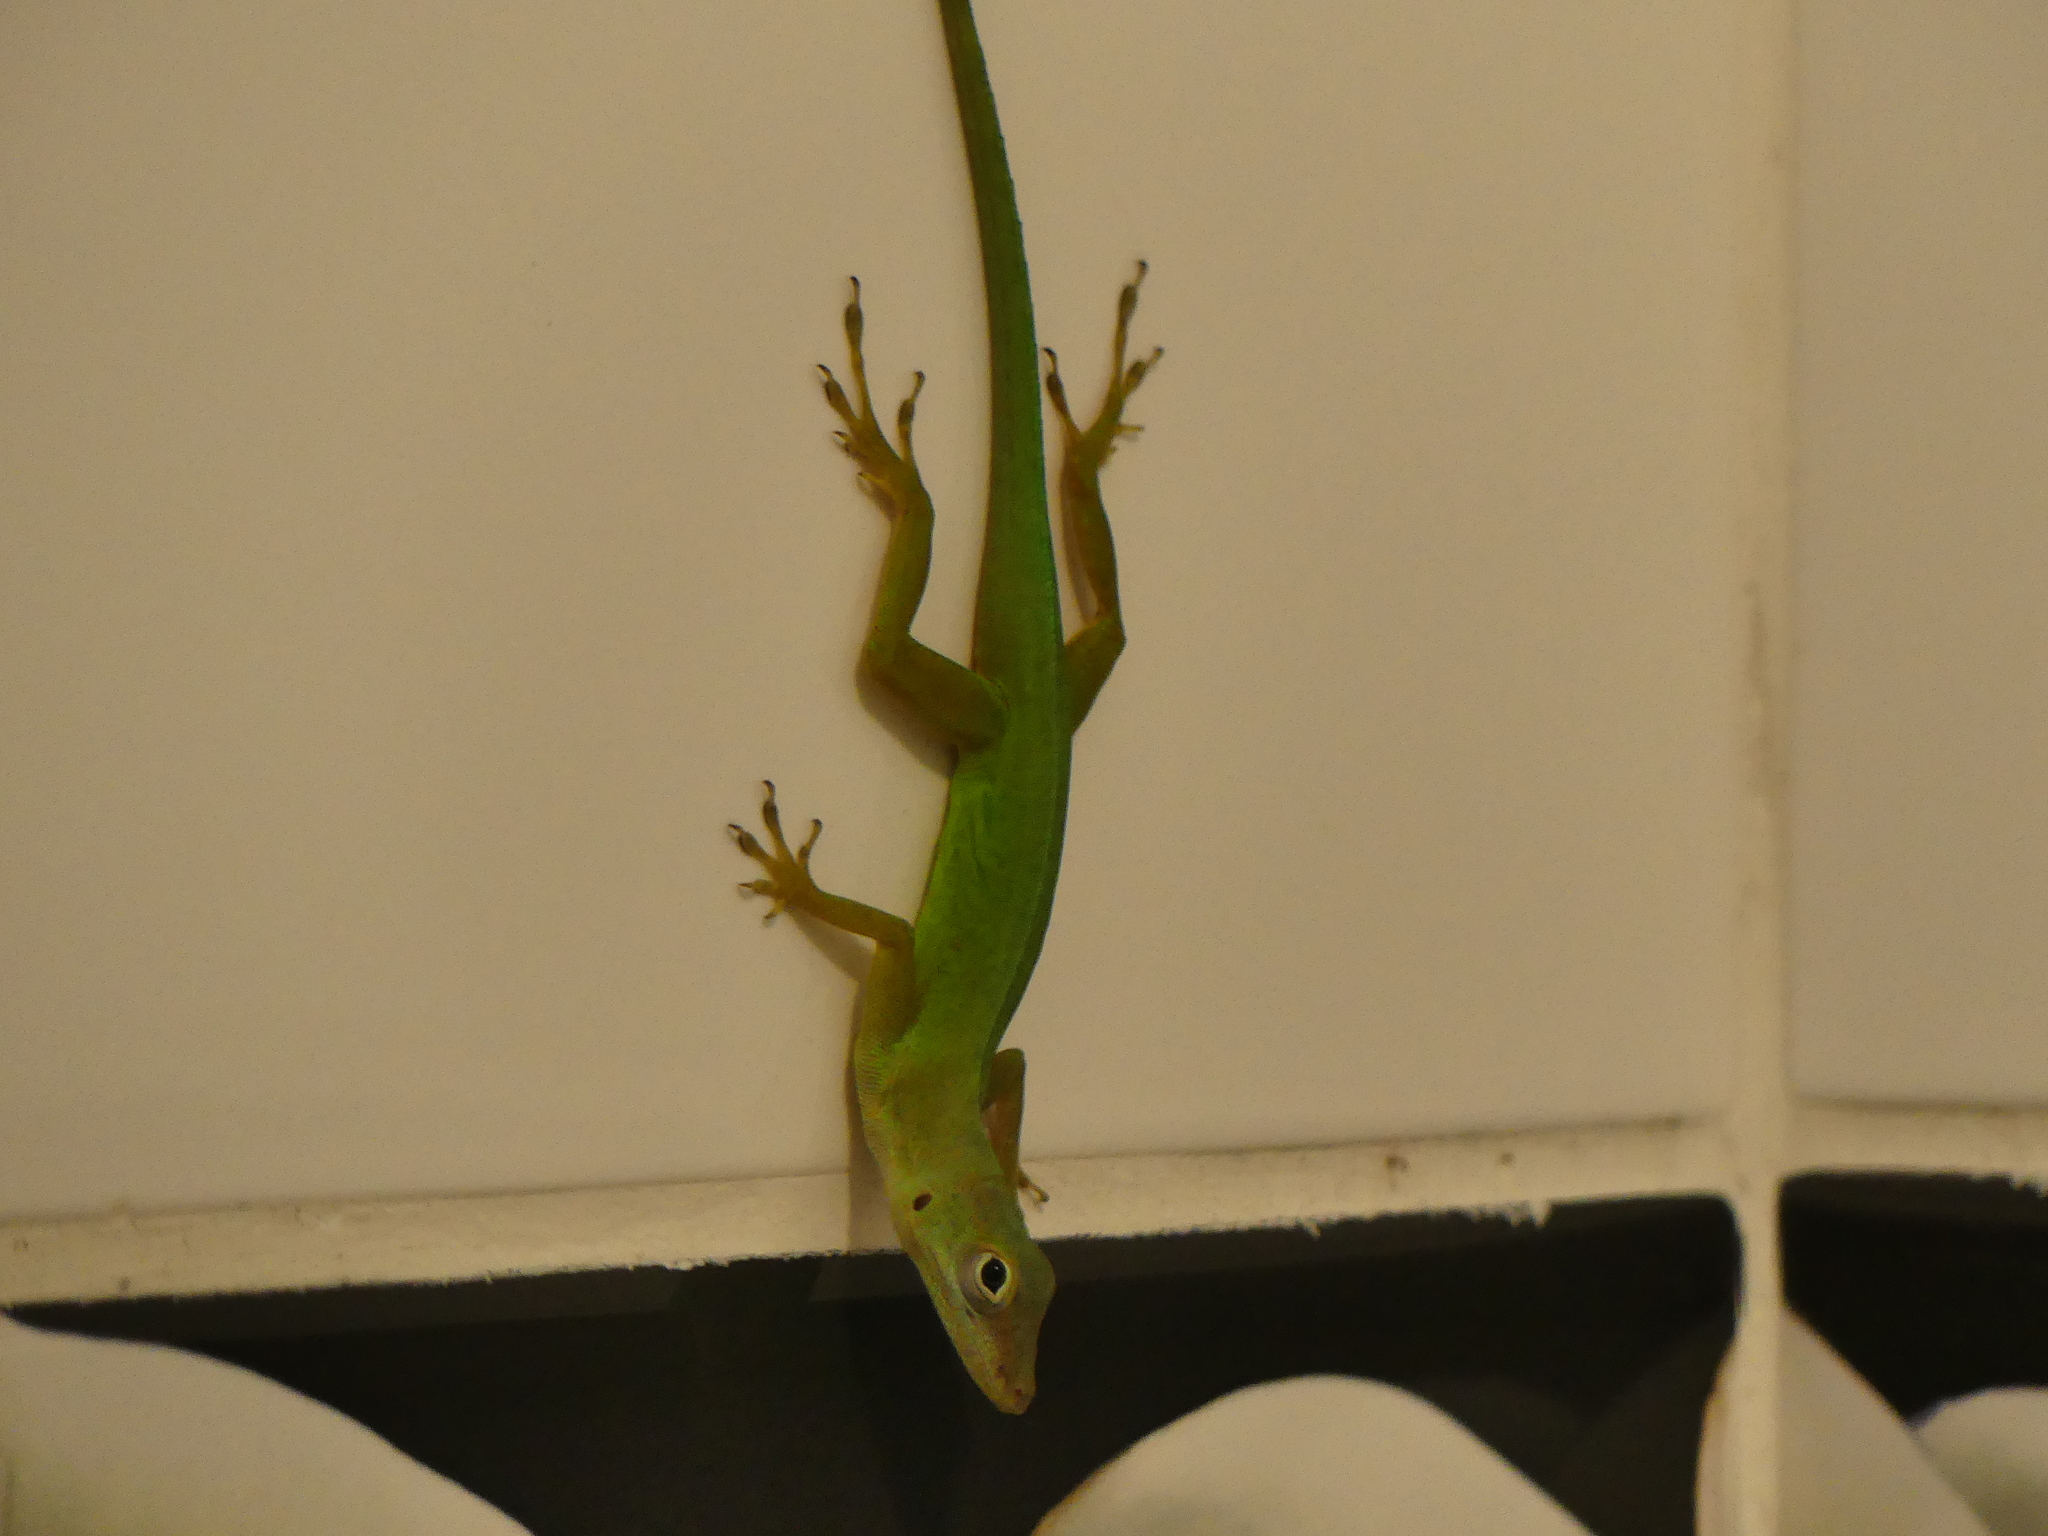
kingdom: Animalia
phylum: Chordata
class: Squamata
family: Dactyloidae
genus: Anolis
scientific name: Anolis marmoratus
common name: Guadeloupe anole
